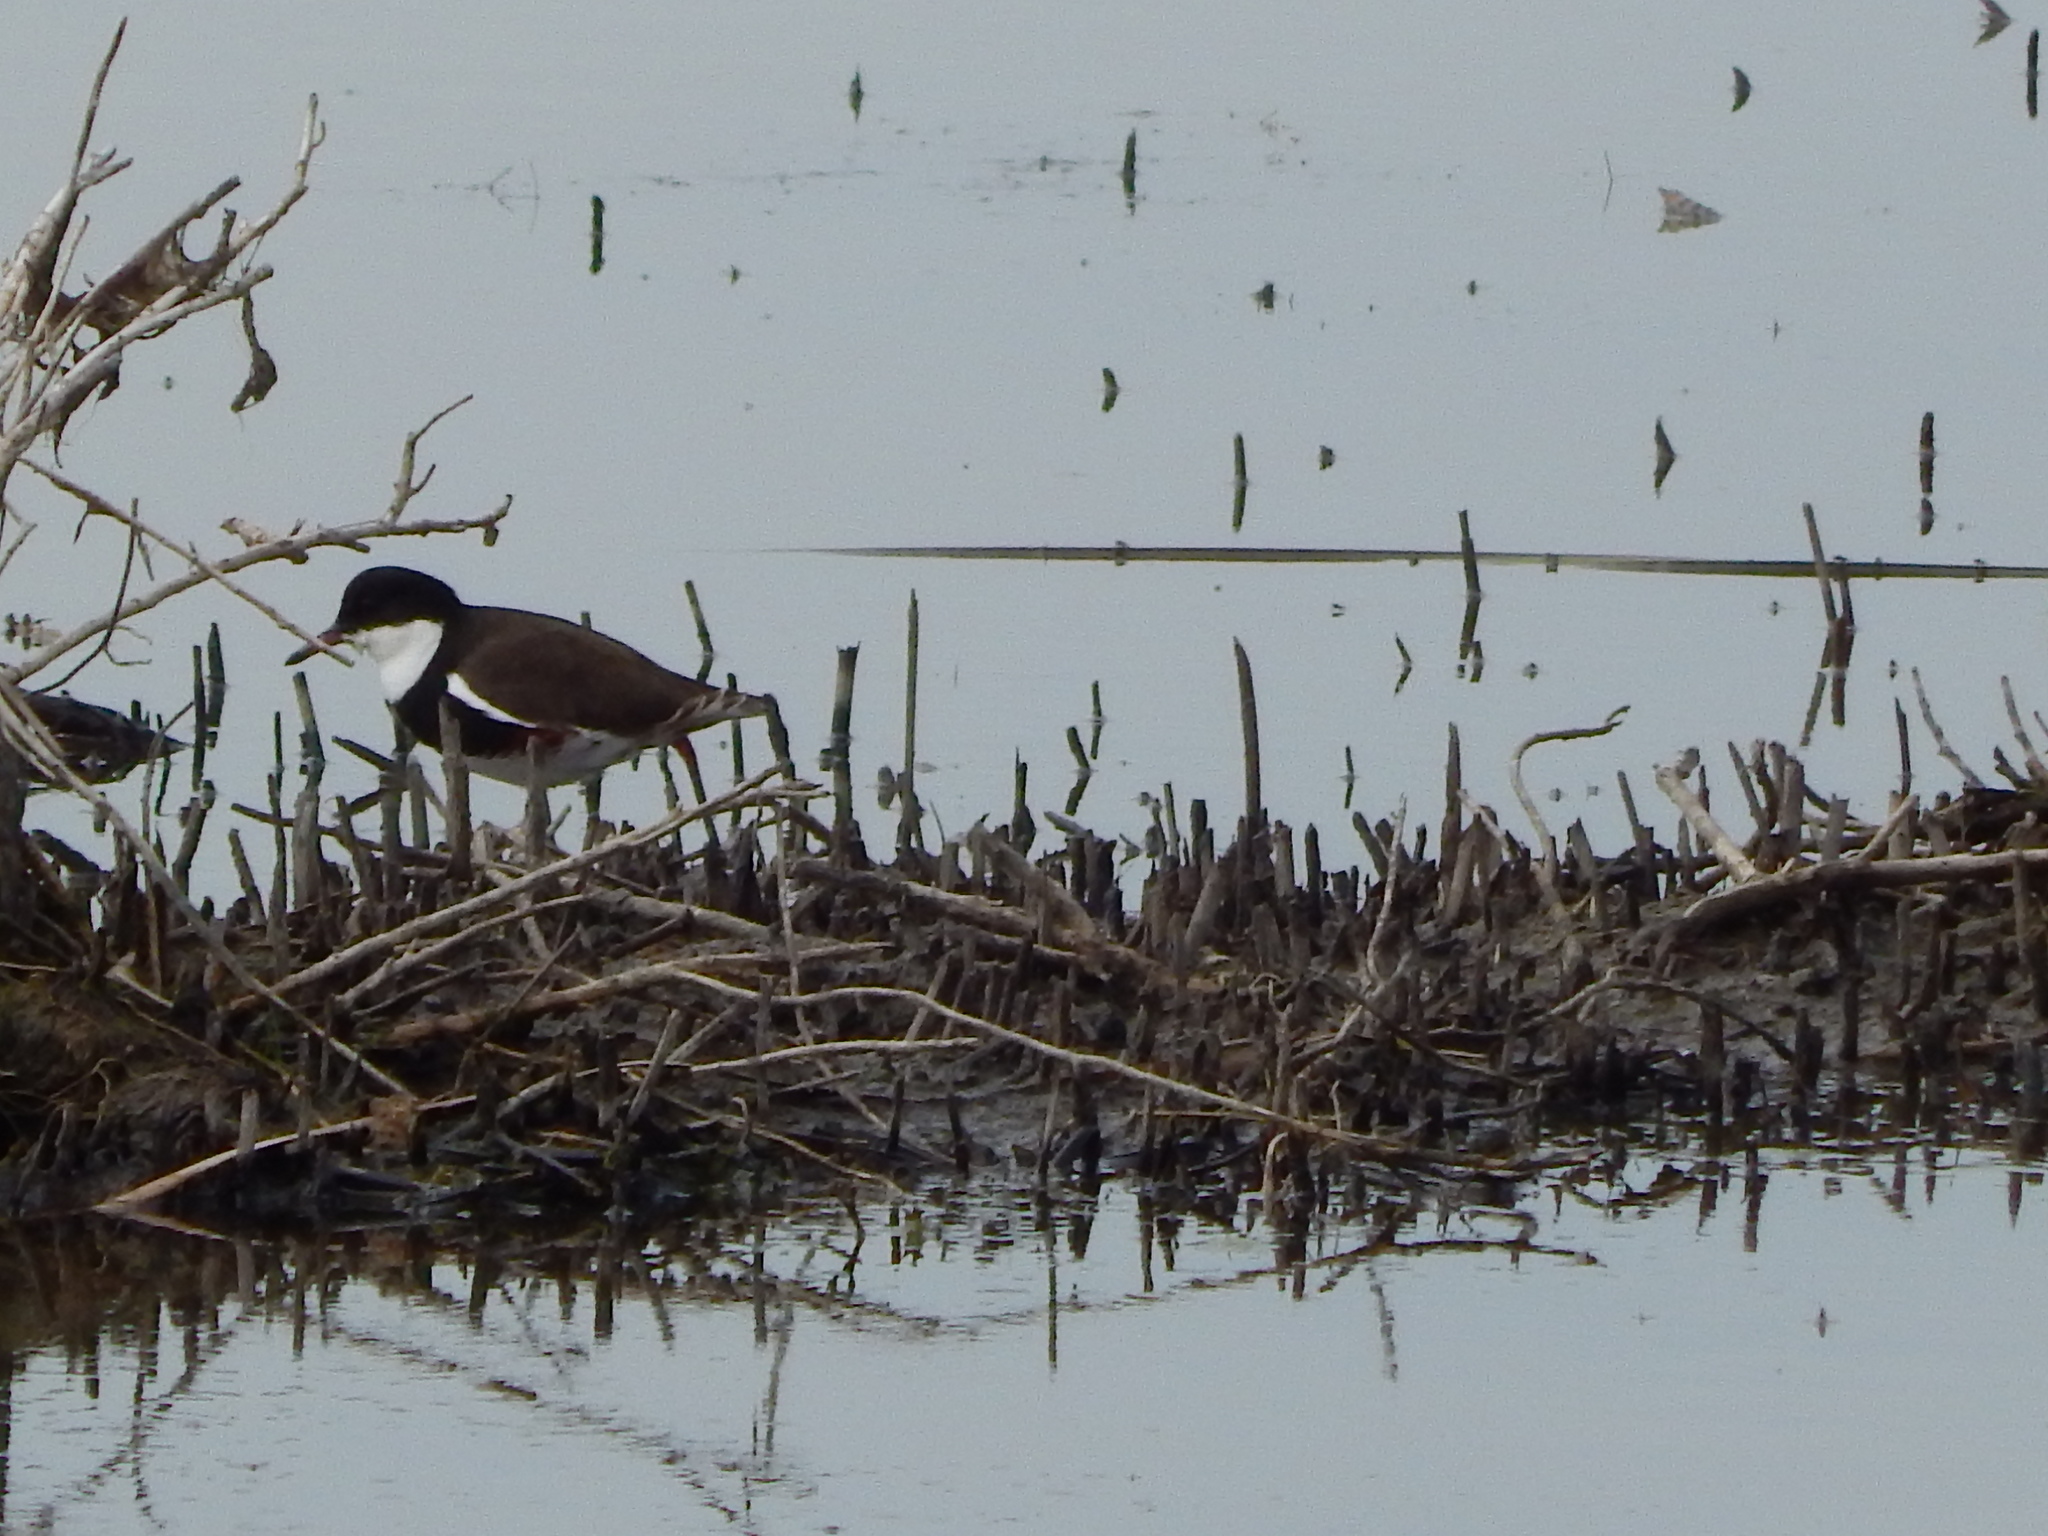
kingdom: Animalia
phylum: Chordata
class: Aves
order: Charadriiformes
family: Charadriidae
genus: Erythrogonys
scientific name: Erythrogonys cinctus
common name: Red-kneed dotterel
